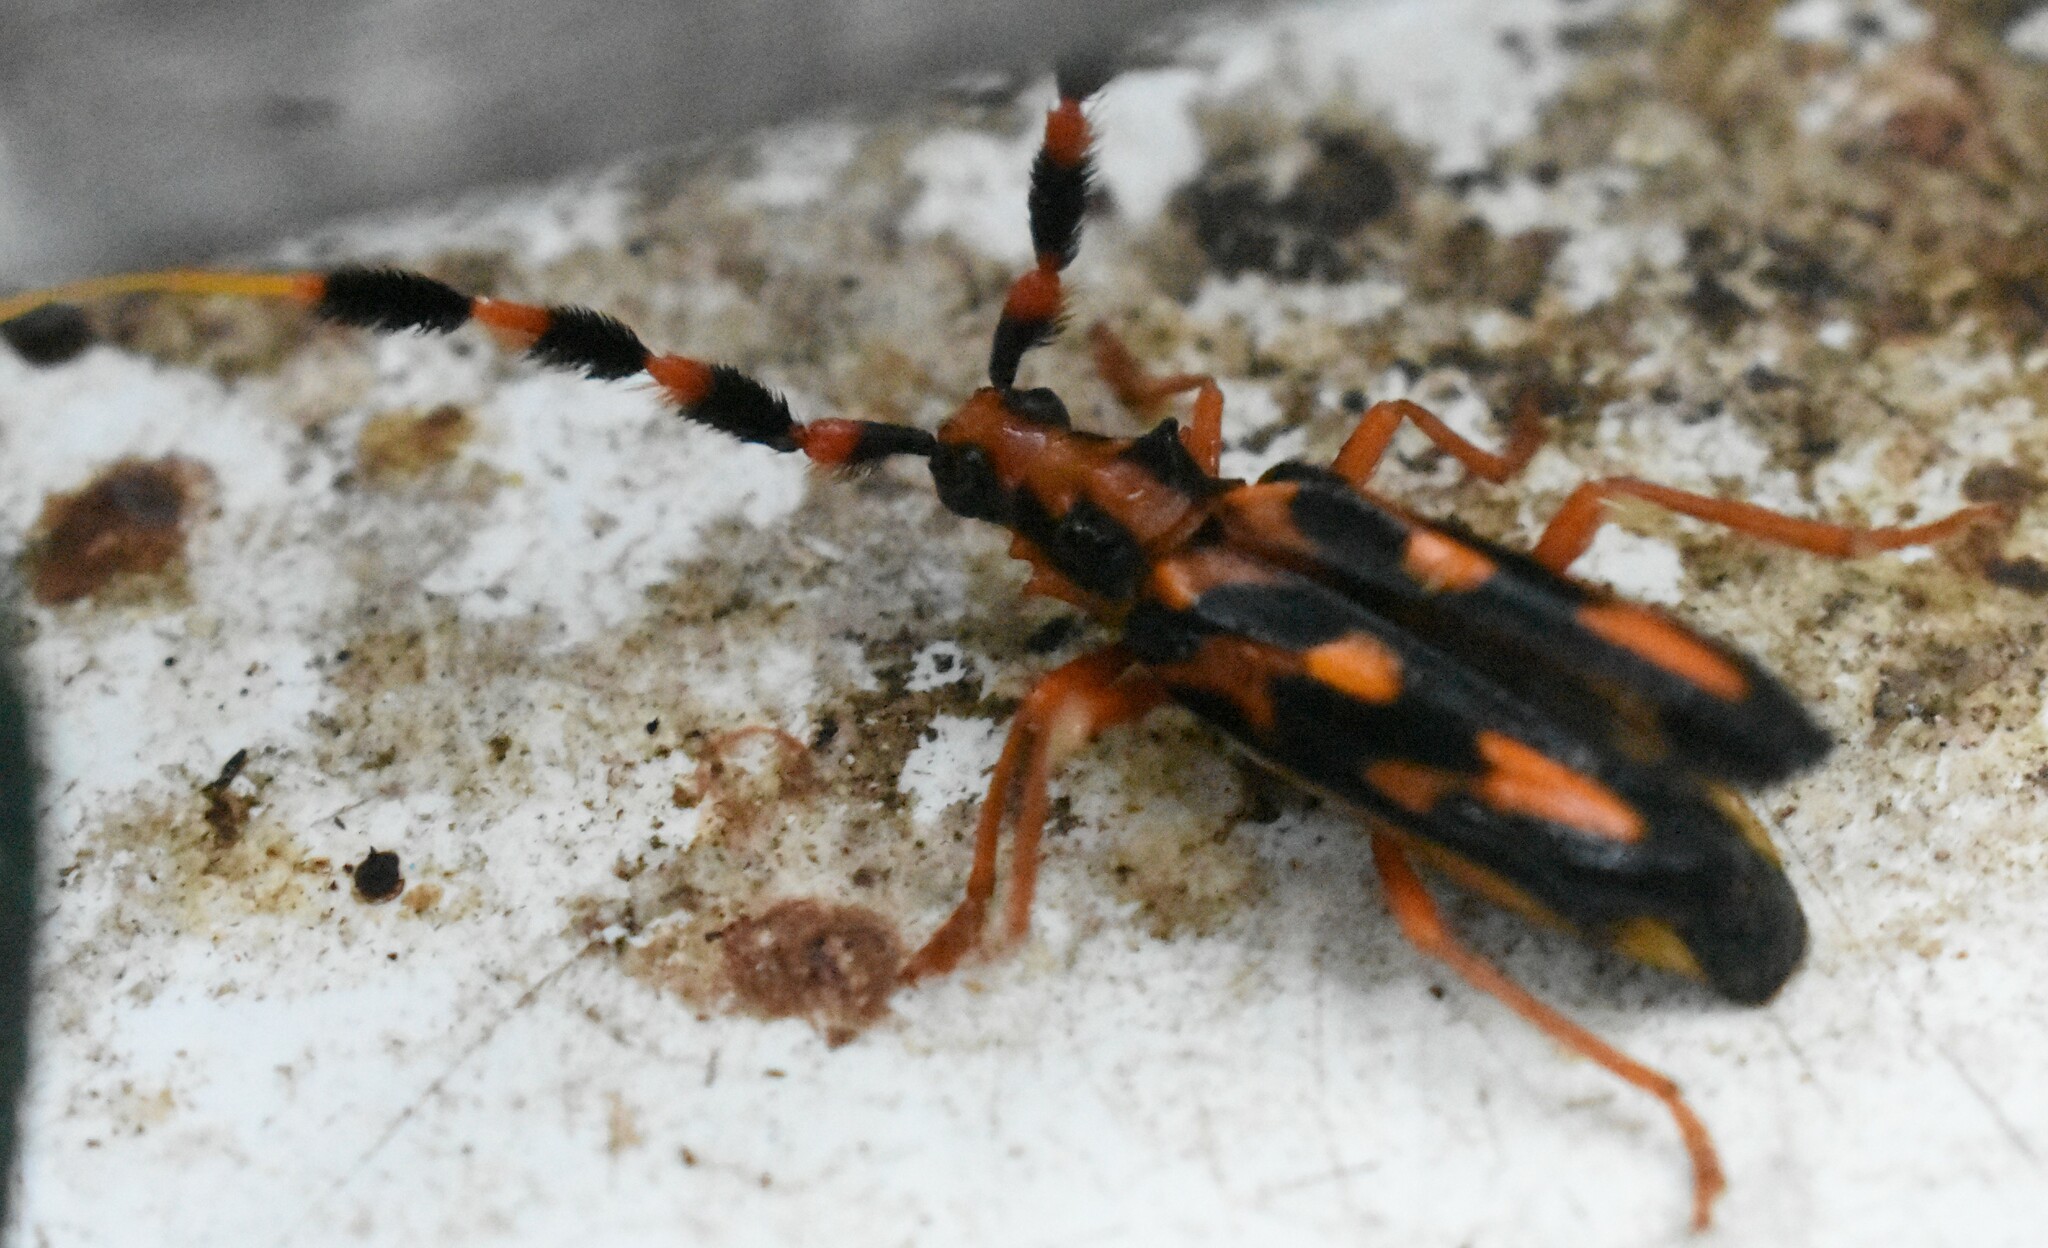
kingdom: Animalia
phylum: Arthropoda
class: Insecta
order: Coleoptera
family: Cerambycidae
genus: Batus
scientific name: Batus barbicornis
